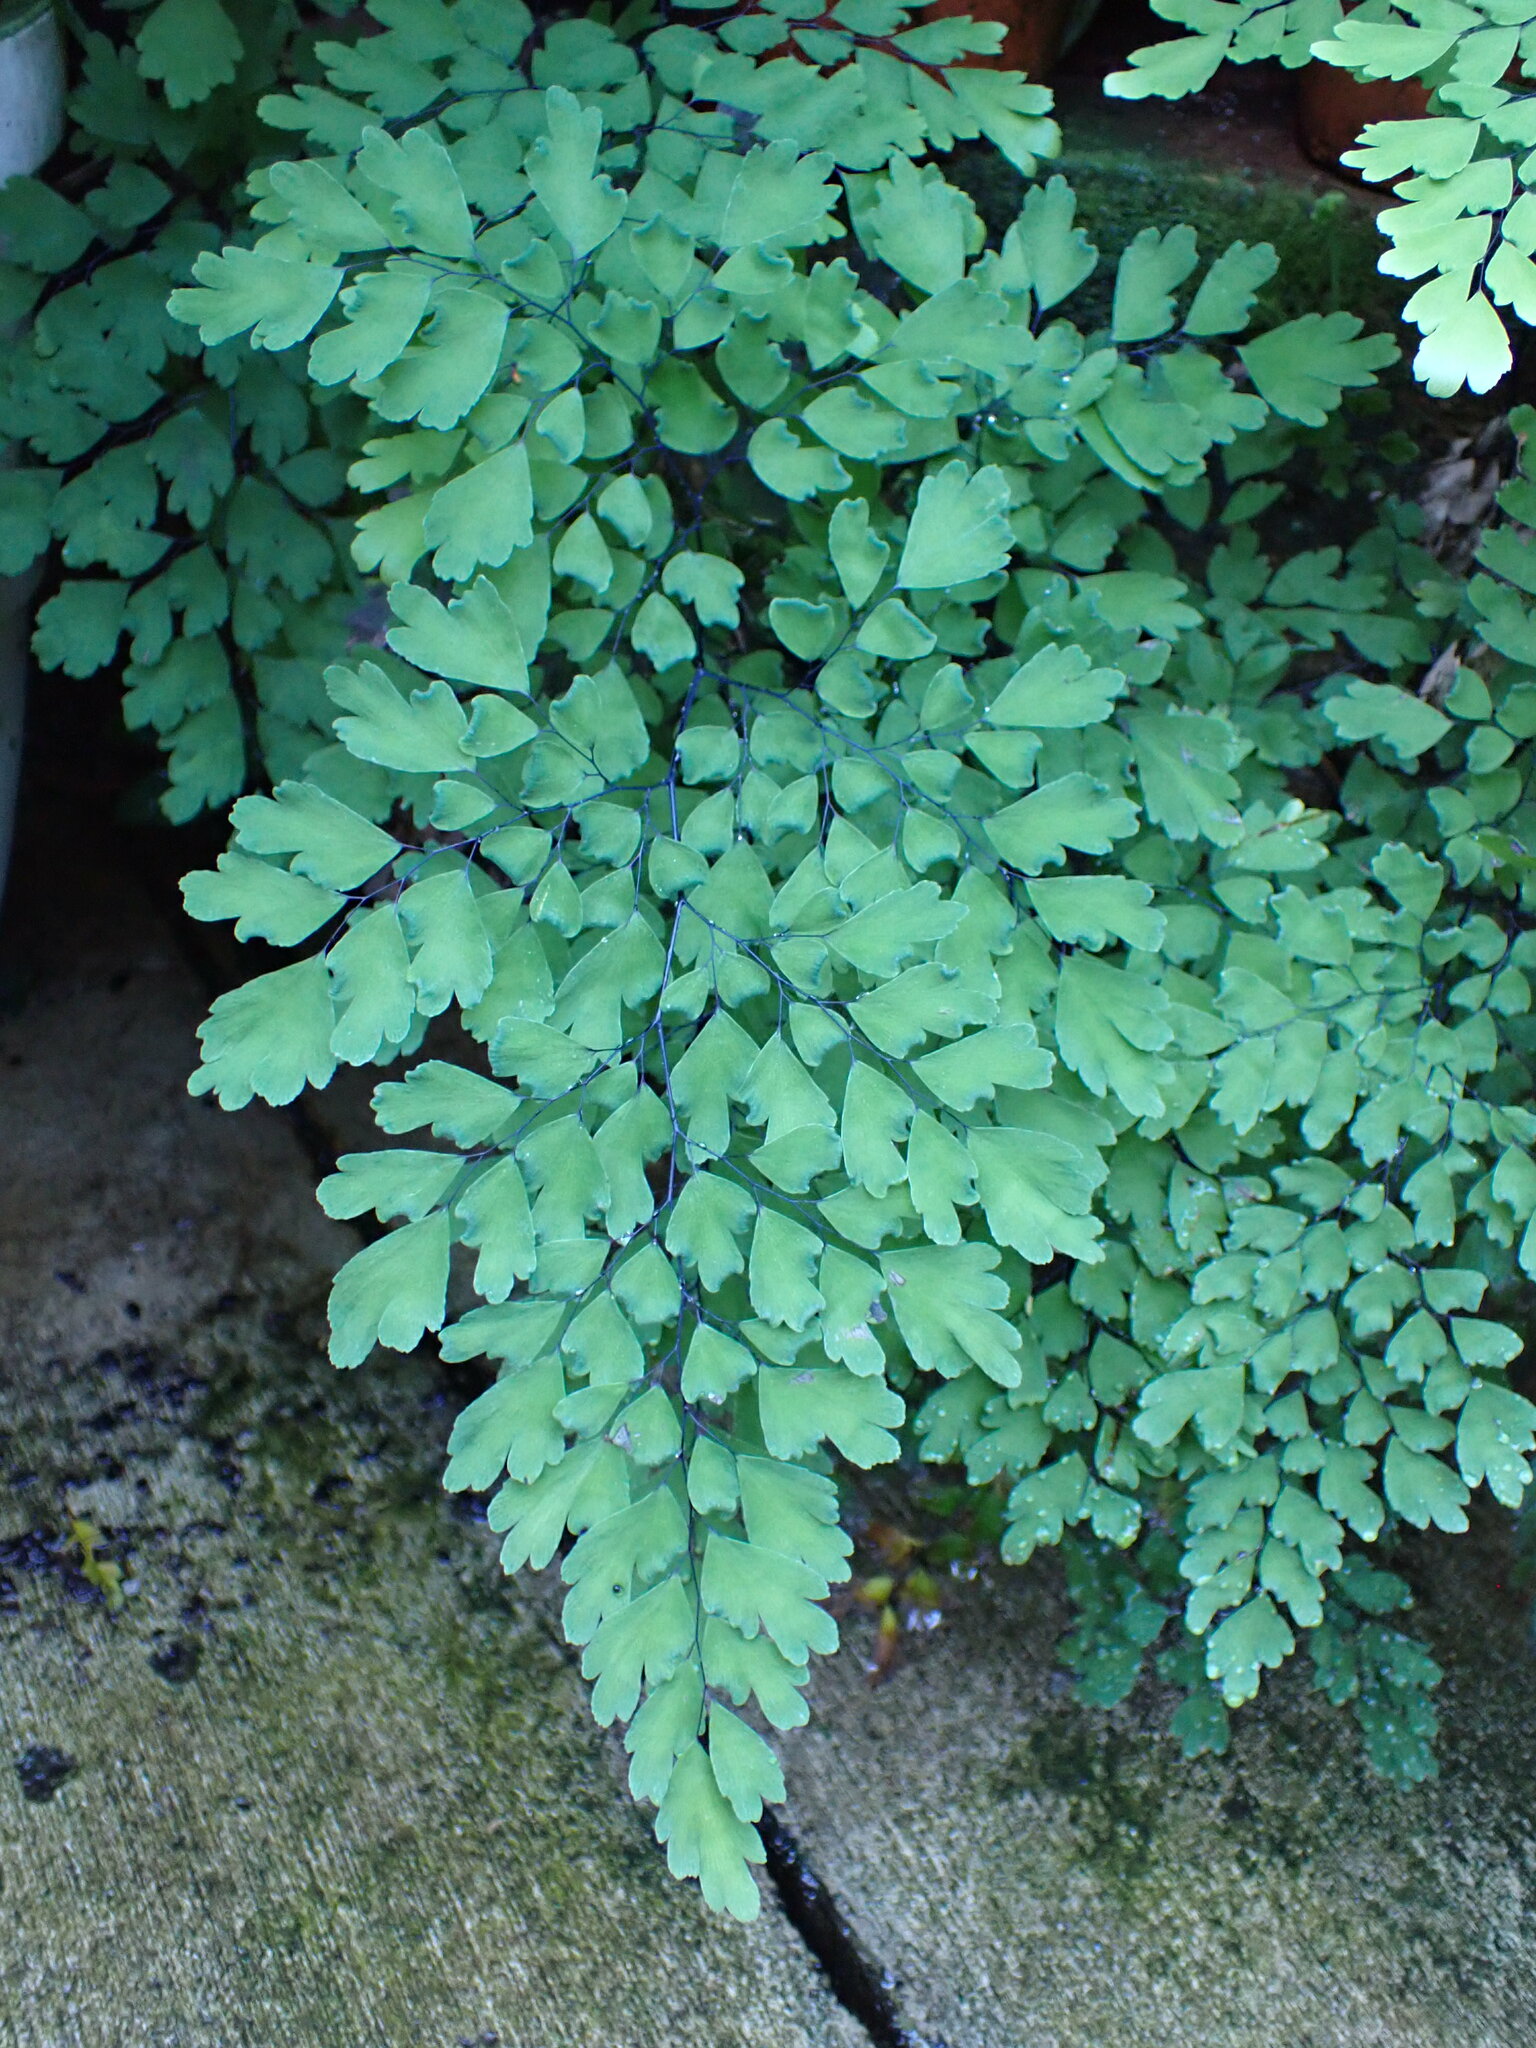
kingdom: Plantae
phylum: Tracheophyta
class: Polypodiopsida
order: Polypodiales
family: Pteridaceae
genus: Adiantum
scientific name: Adiantum capillus-veneris
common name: Maidenhair fern
